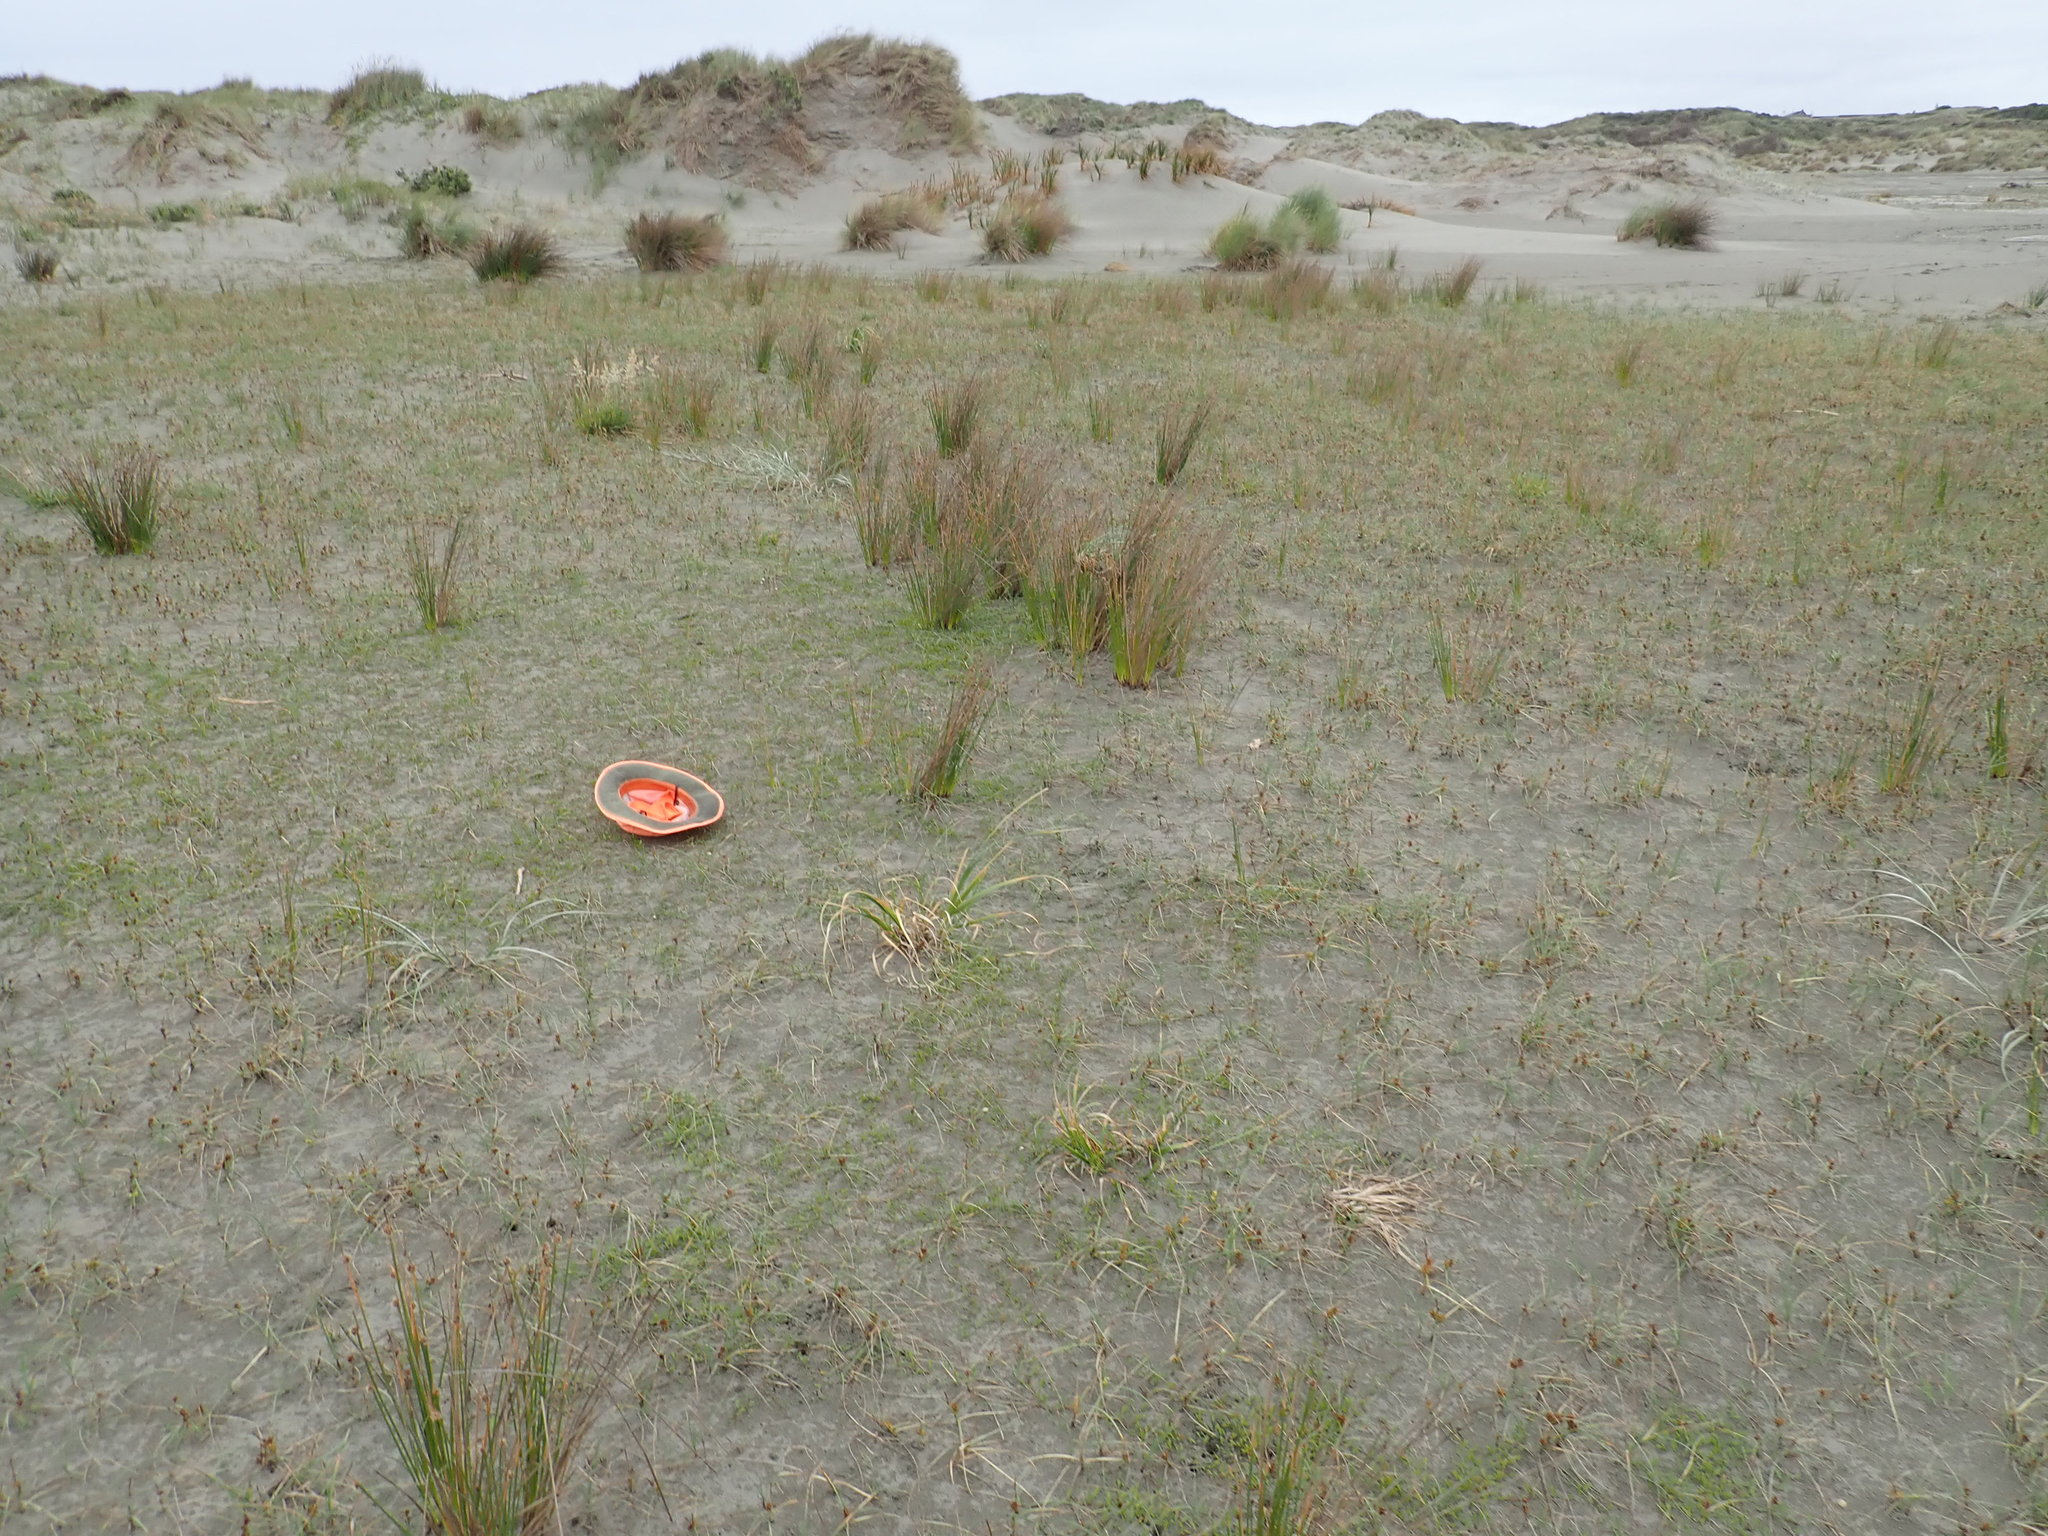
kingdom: Plantae
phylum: Tracheophyta
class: Magnoliopsida
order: Asterales
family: Goodeniaceae
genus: Goodenia
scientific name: Goodenia radicans
